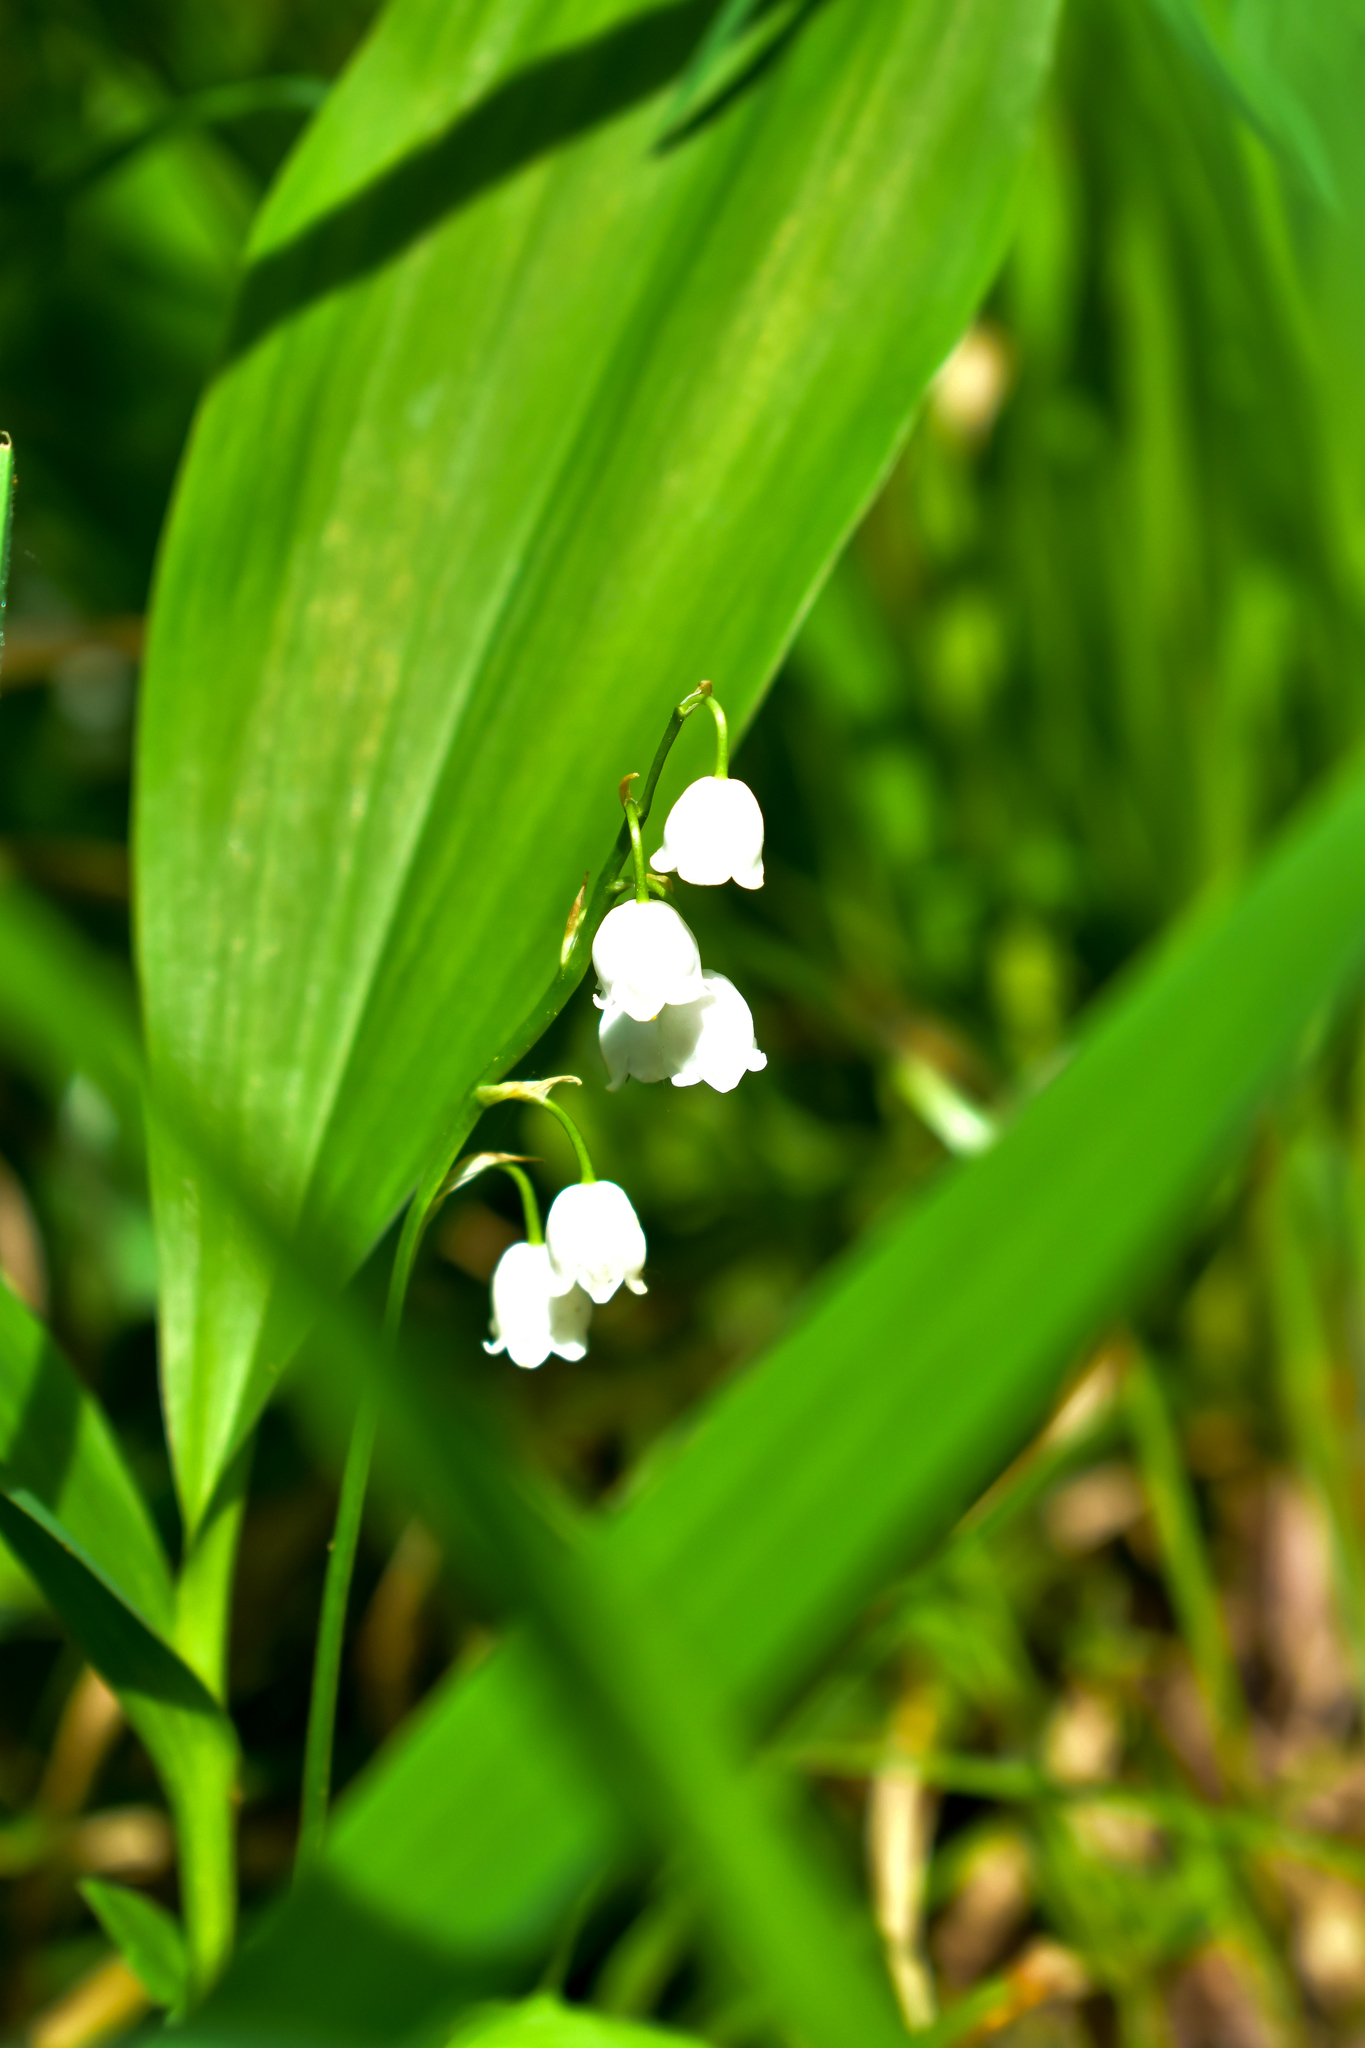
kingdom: Plantae
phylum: Tracheophyta
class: Liliopsida
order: Asparagales
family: Asparagaceae
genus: Convallaria
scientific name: Convallaria majalis
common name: Lily-of-the-valley
